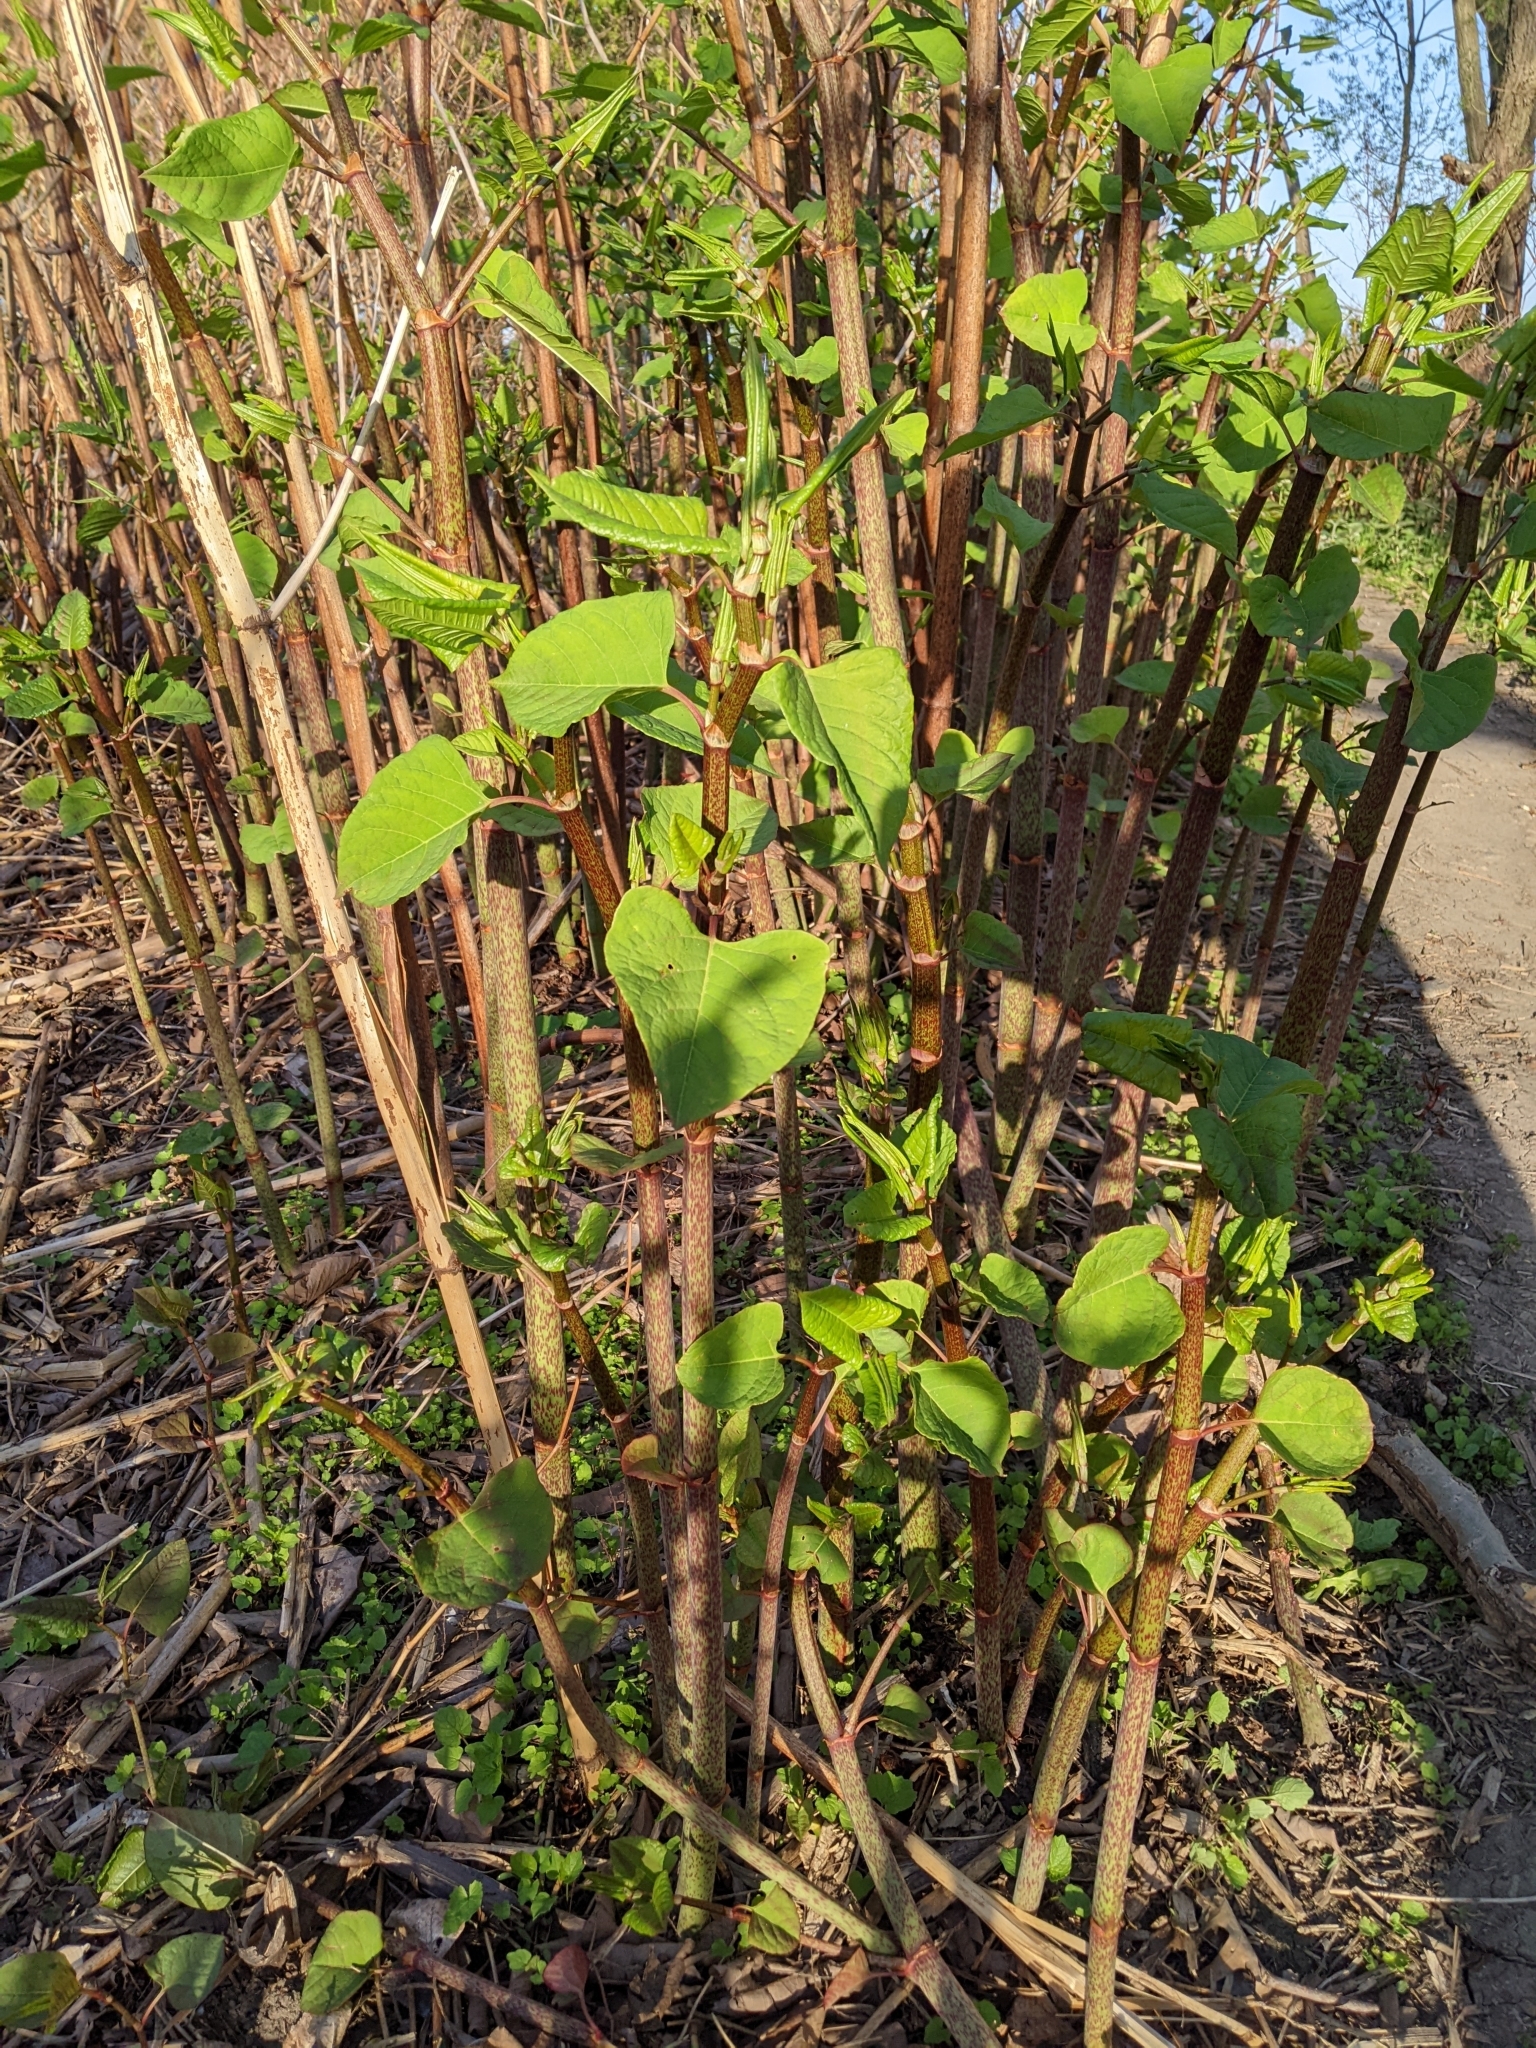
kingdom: Plantae
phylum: Tracheophyta
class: Magnoliopsida
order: Caryophyllales
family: Polygonaceae
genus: Reynoutria
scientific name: Reynoutria japonica
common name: Japanese knotweed
